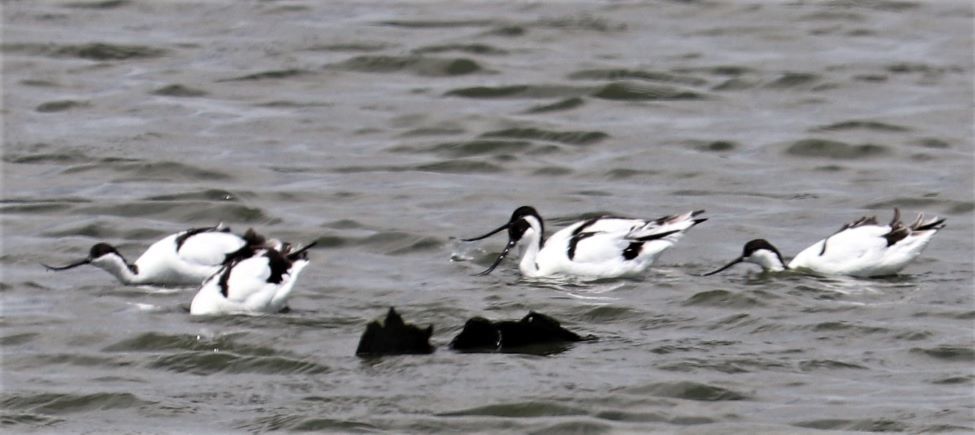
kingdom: Animalia
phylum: Chordata
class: Aves
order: Charadriiformes
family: Recurvirostridae
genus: Recurvirostra
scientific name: Recurvirostra avosetta
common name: Pied avocet
